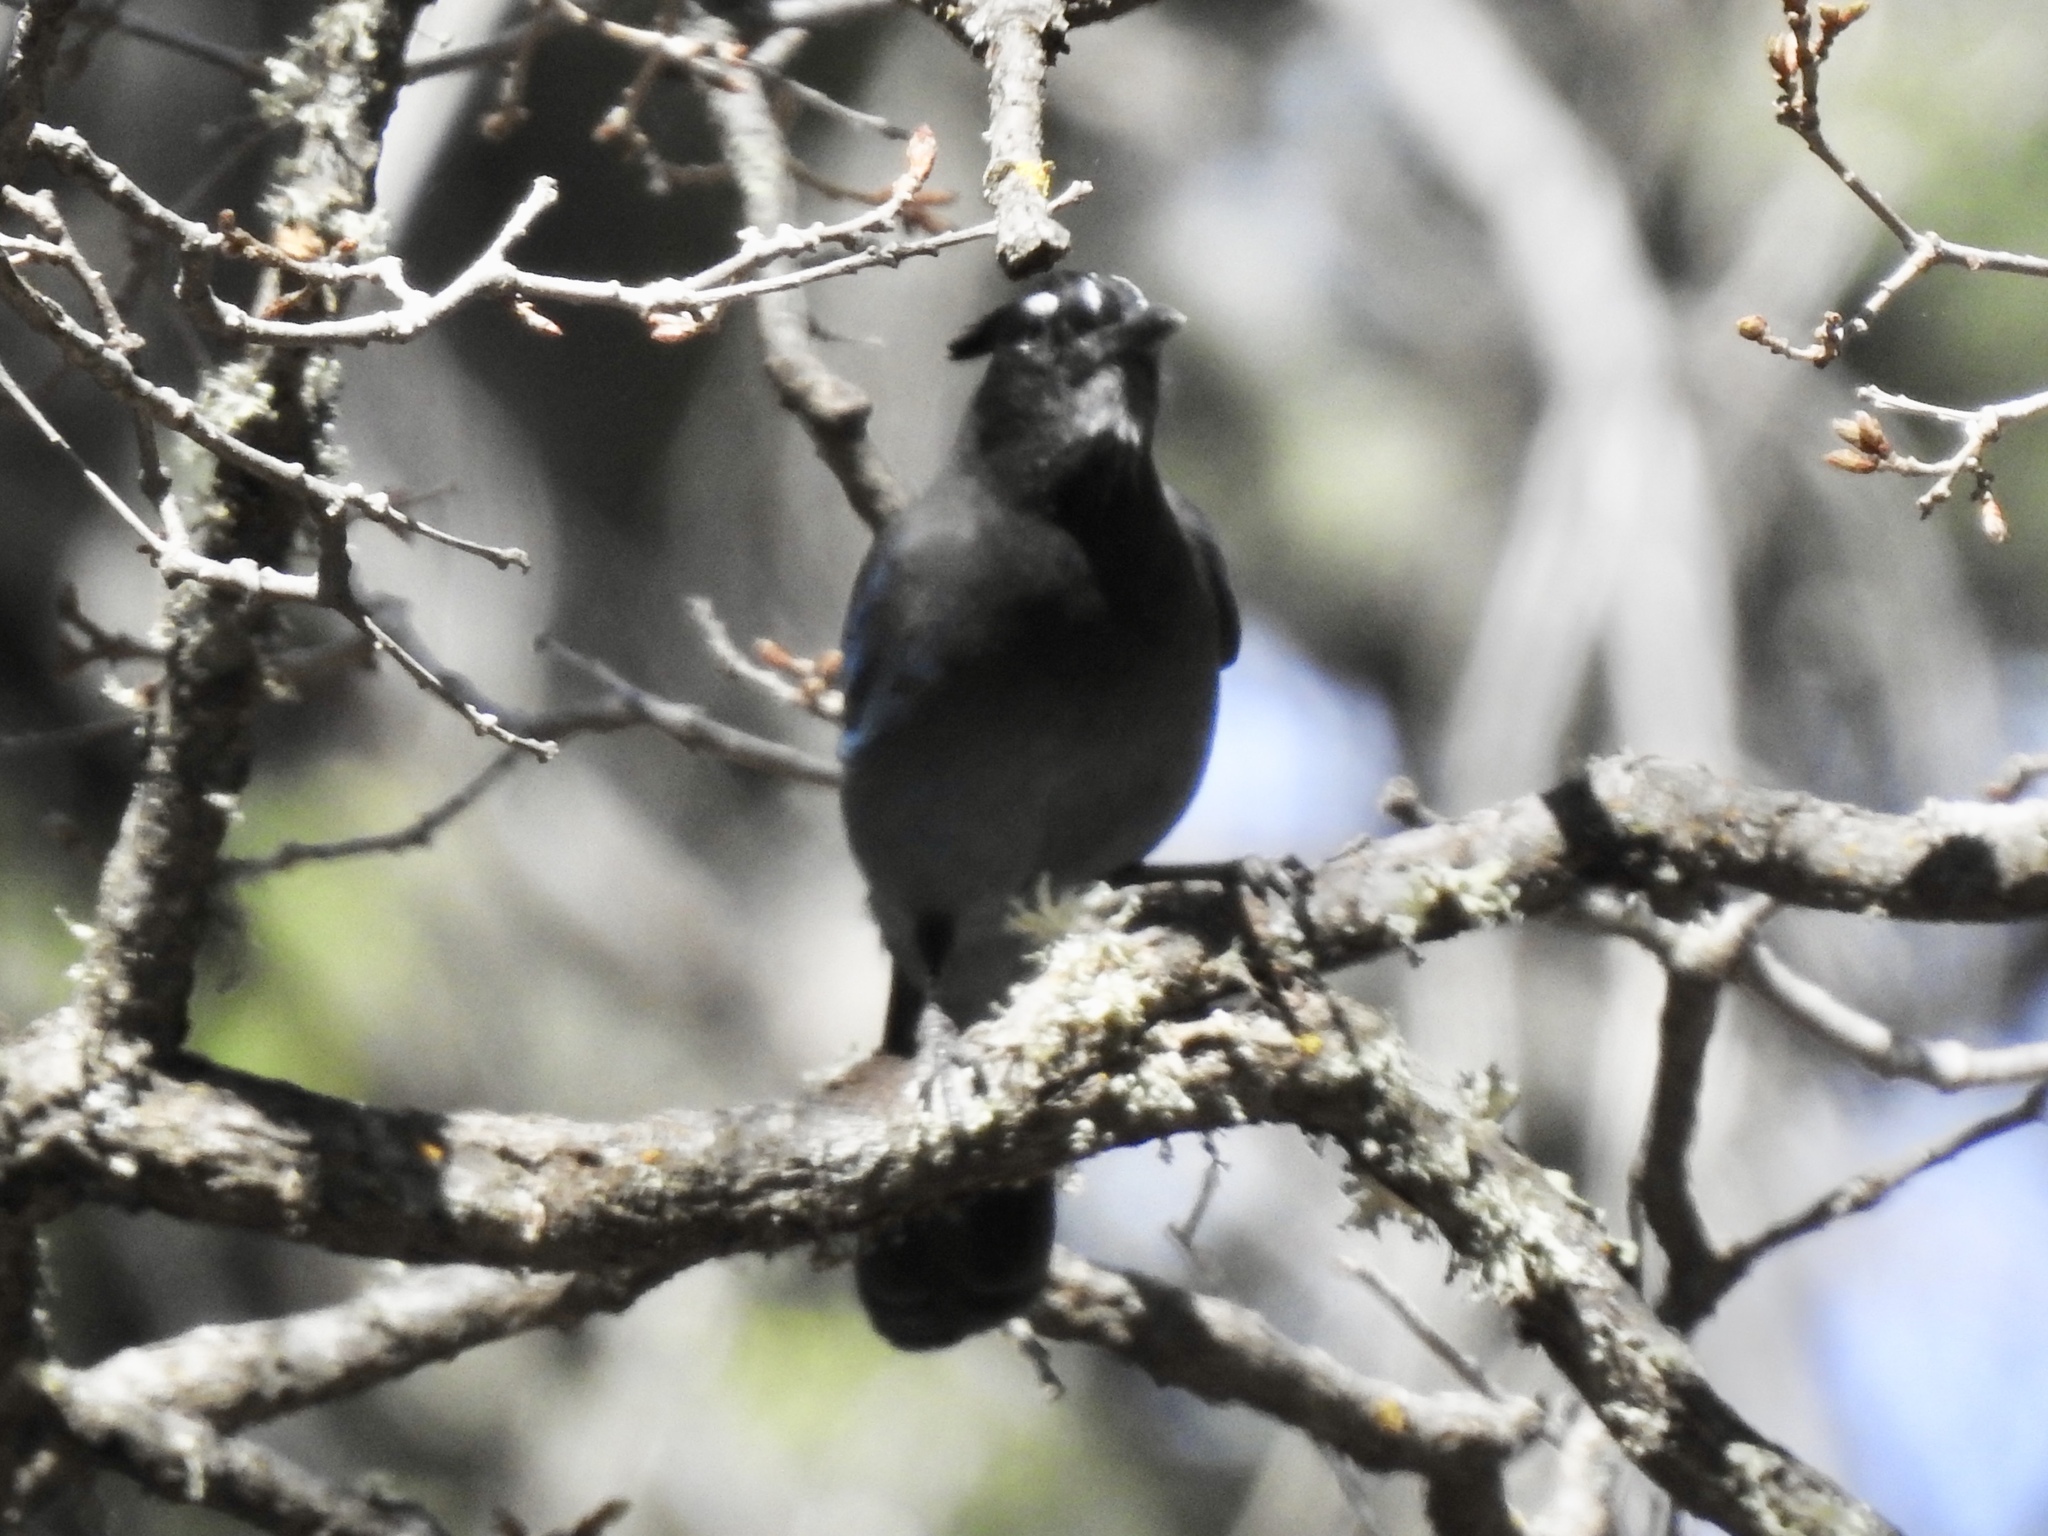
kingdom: Animalia
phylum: Chordata
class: Aves
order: Passeriformes
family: Corvidae
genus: Cyanocitta
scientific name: Cyanocitta stelleri
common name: Steller's jay
